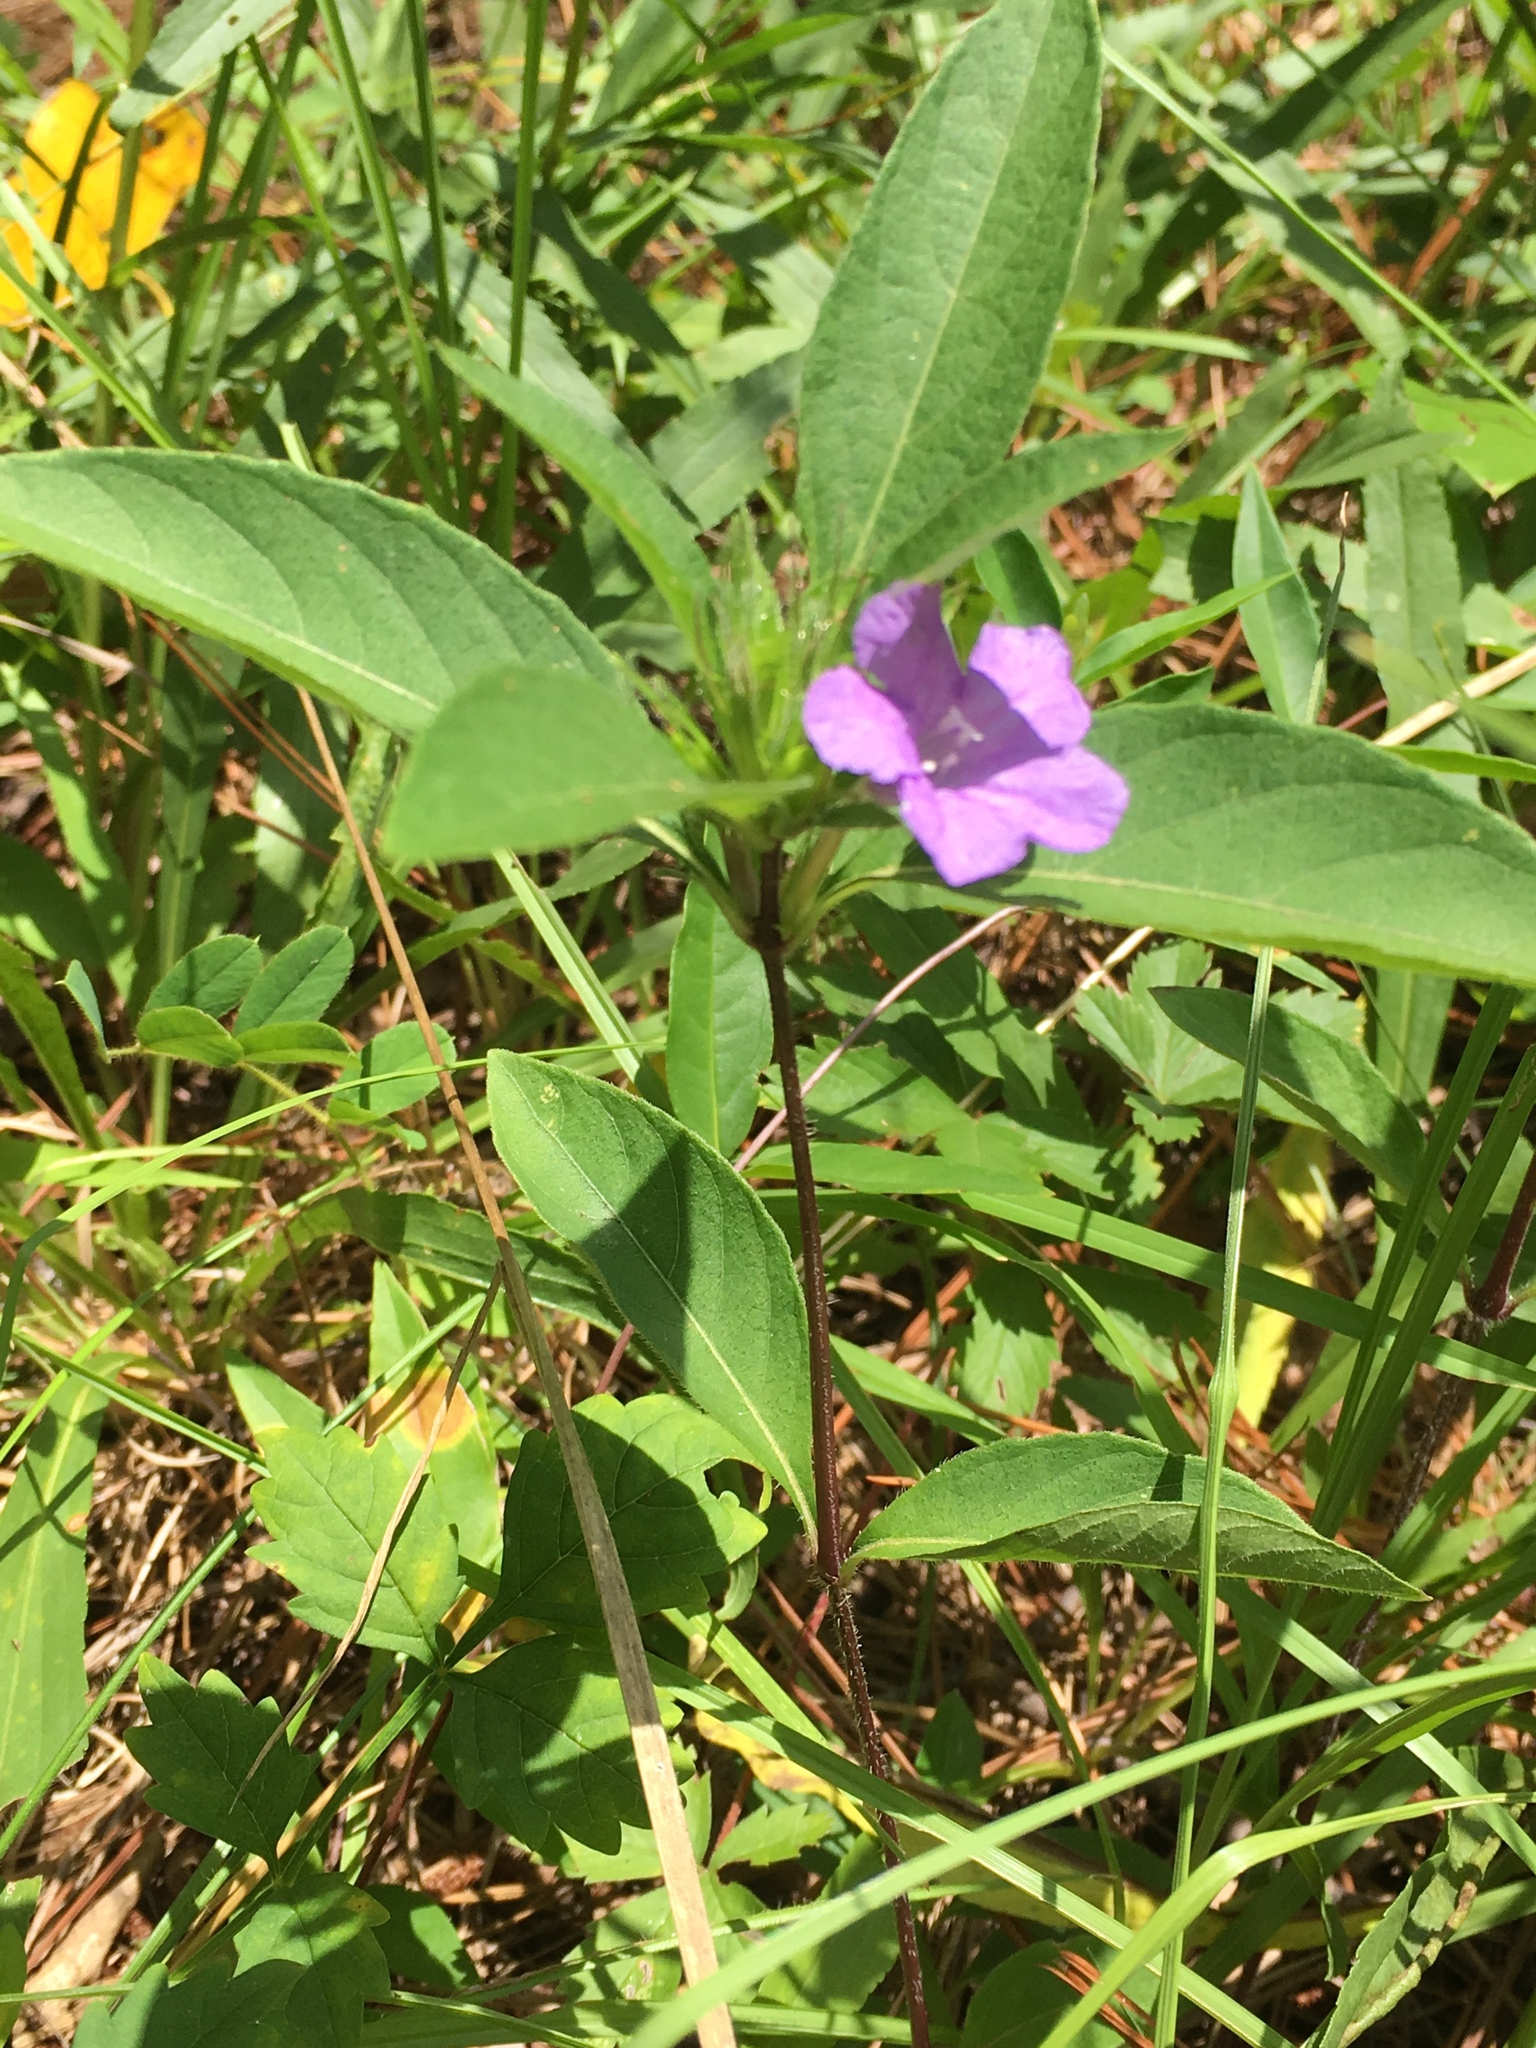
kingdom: Plantae
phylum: Tracheophyta
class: Magnoliopsida
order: Lamiales
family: Acanthaceae
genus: Ruellia
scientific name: Ruellia caroliniensis
